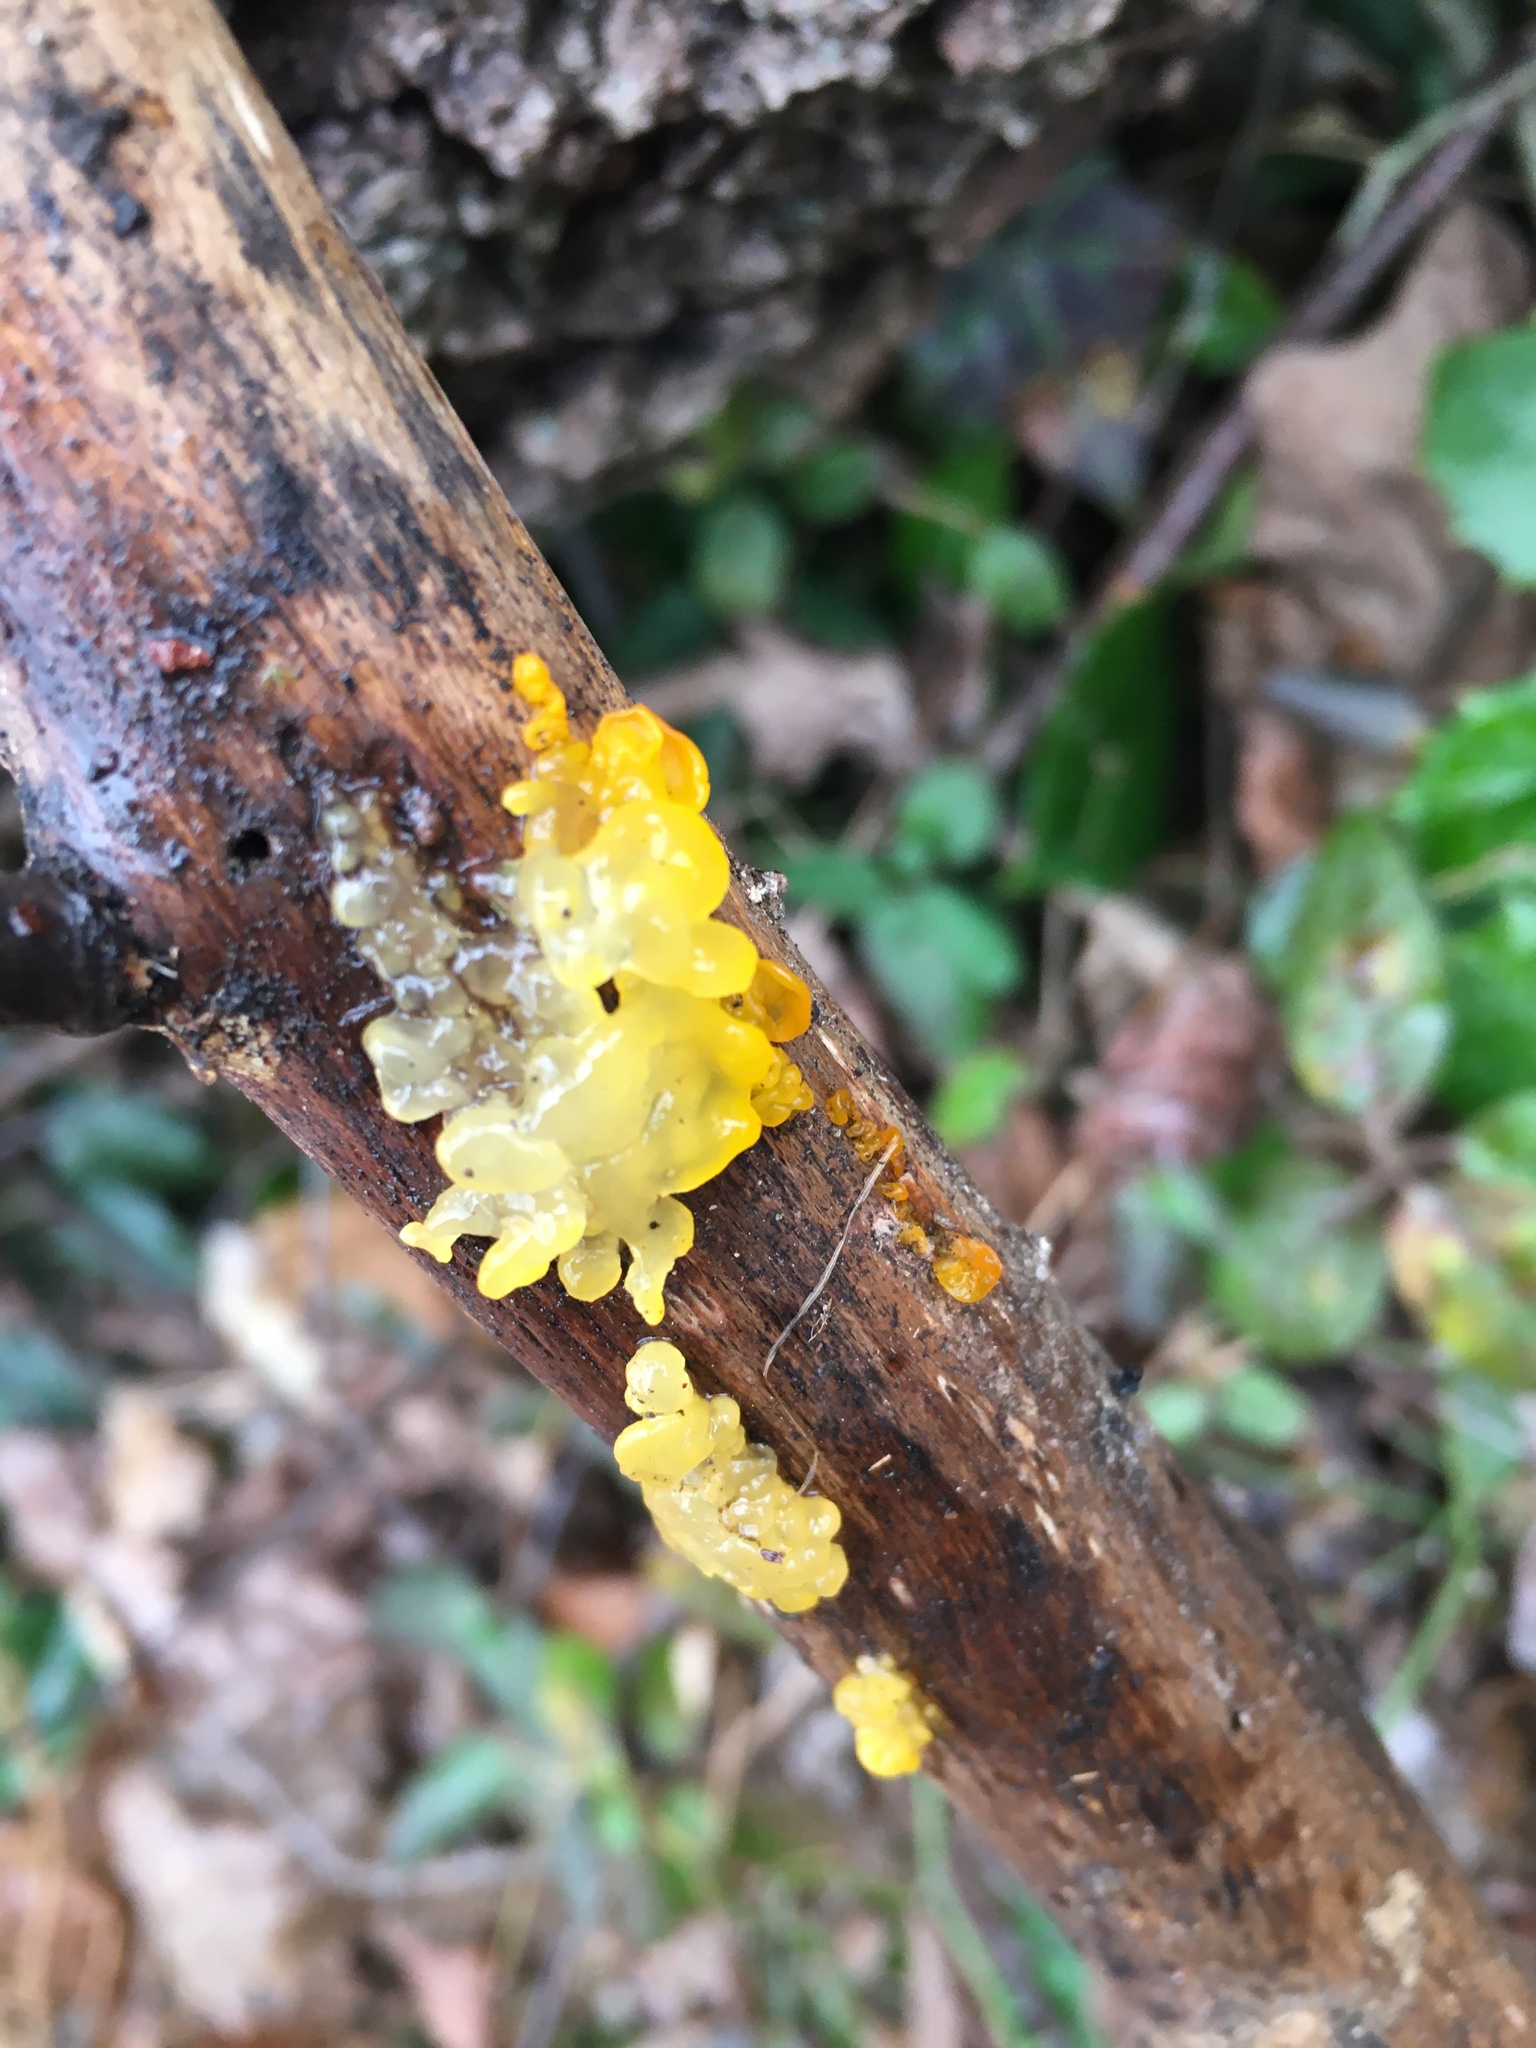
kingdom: Fungi
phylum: Basidiomycota
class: Tremellomycetes
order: Tremellales
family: Tremellaceae
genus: Tremella
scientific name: Tremella mesenterica
